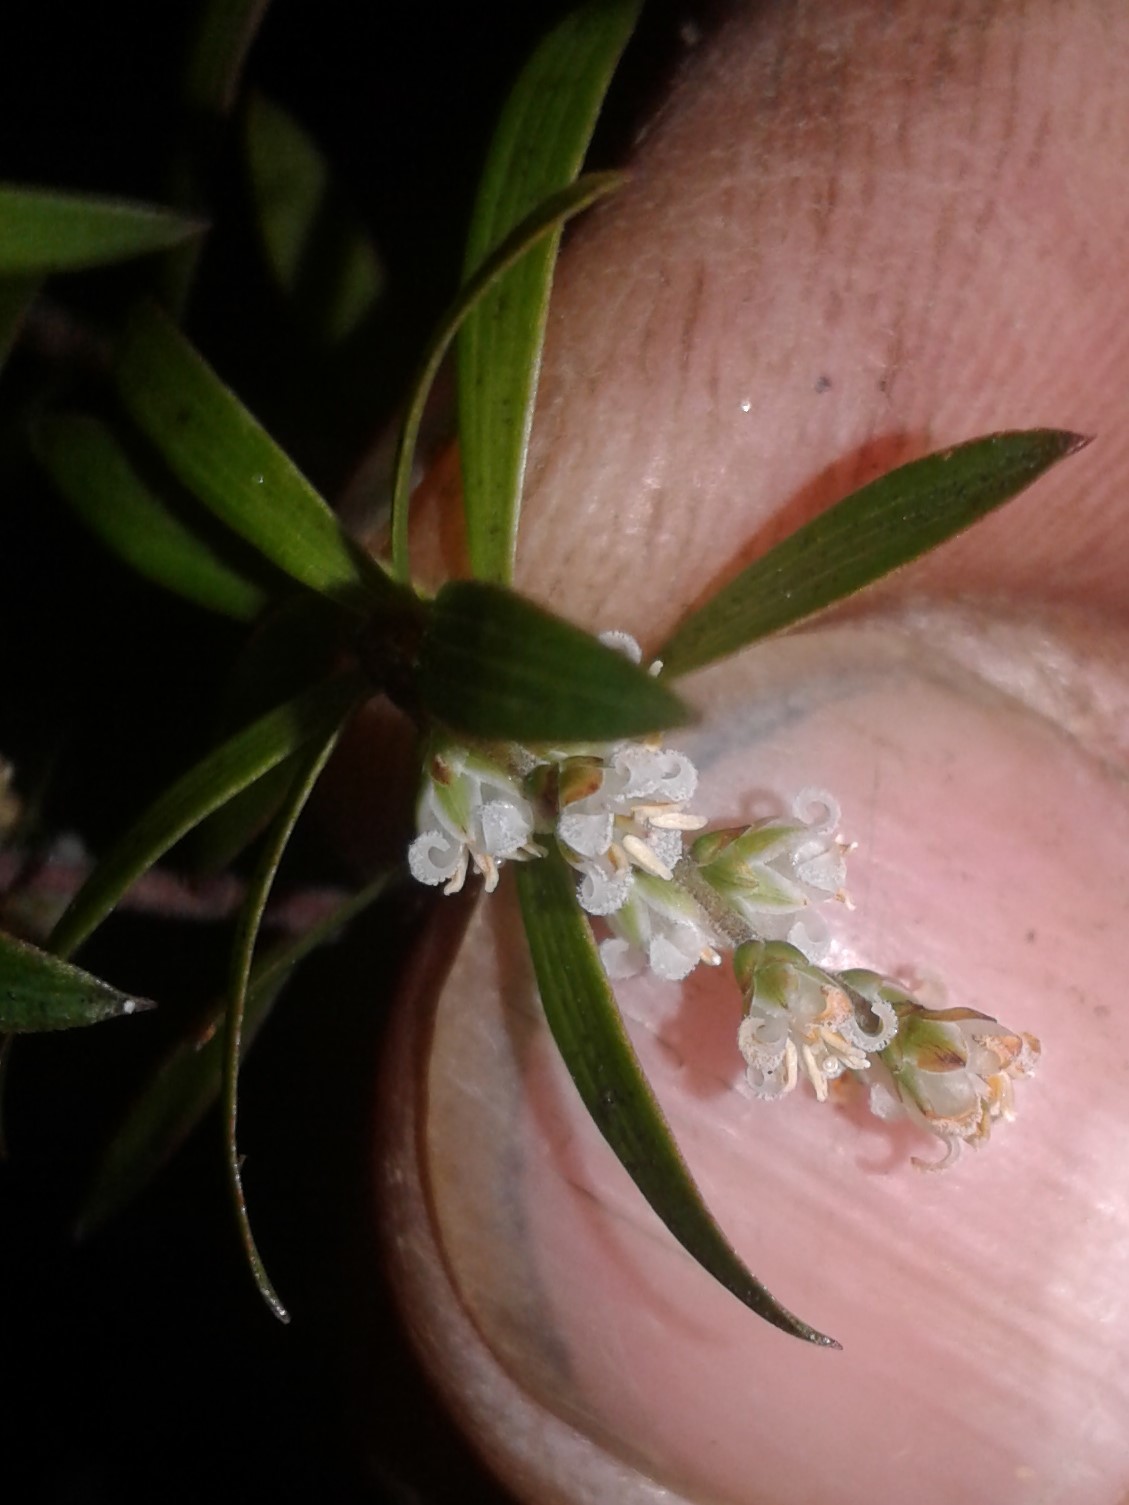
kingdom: Plantae
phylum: Tracheophyta
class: Magnoliopsida
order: Ericales
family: Ericaceae
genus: Leucopogon
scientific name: Leucopogon fasciculatus
